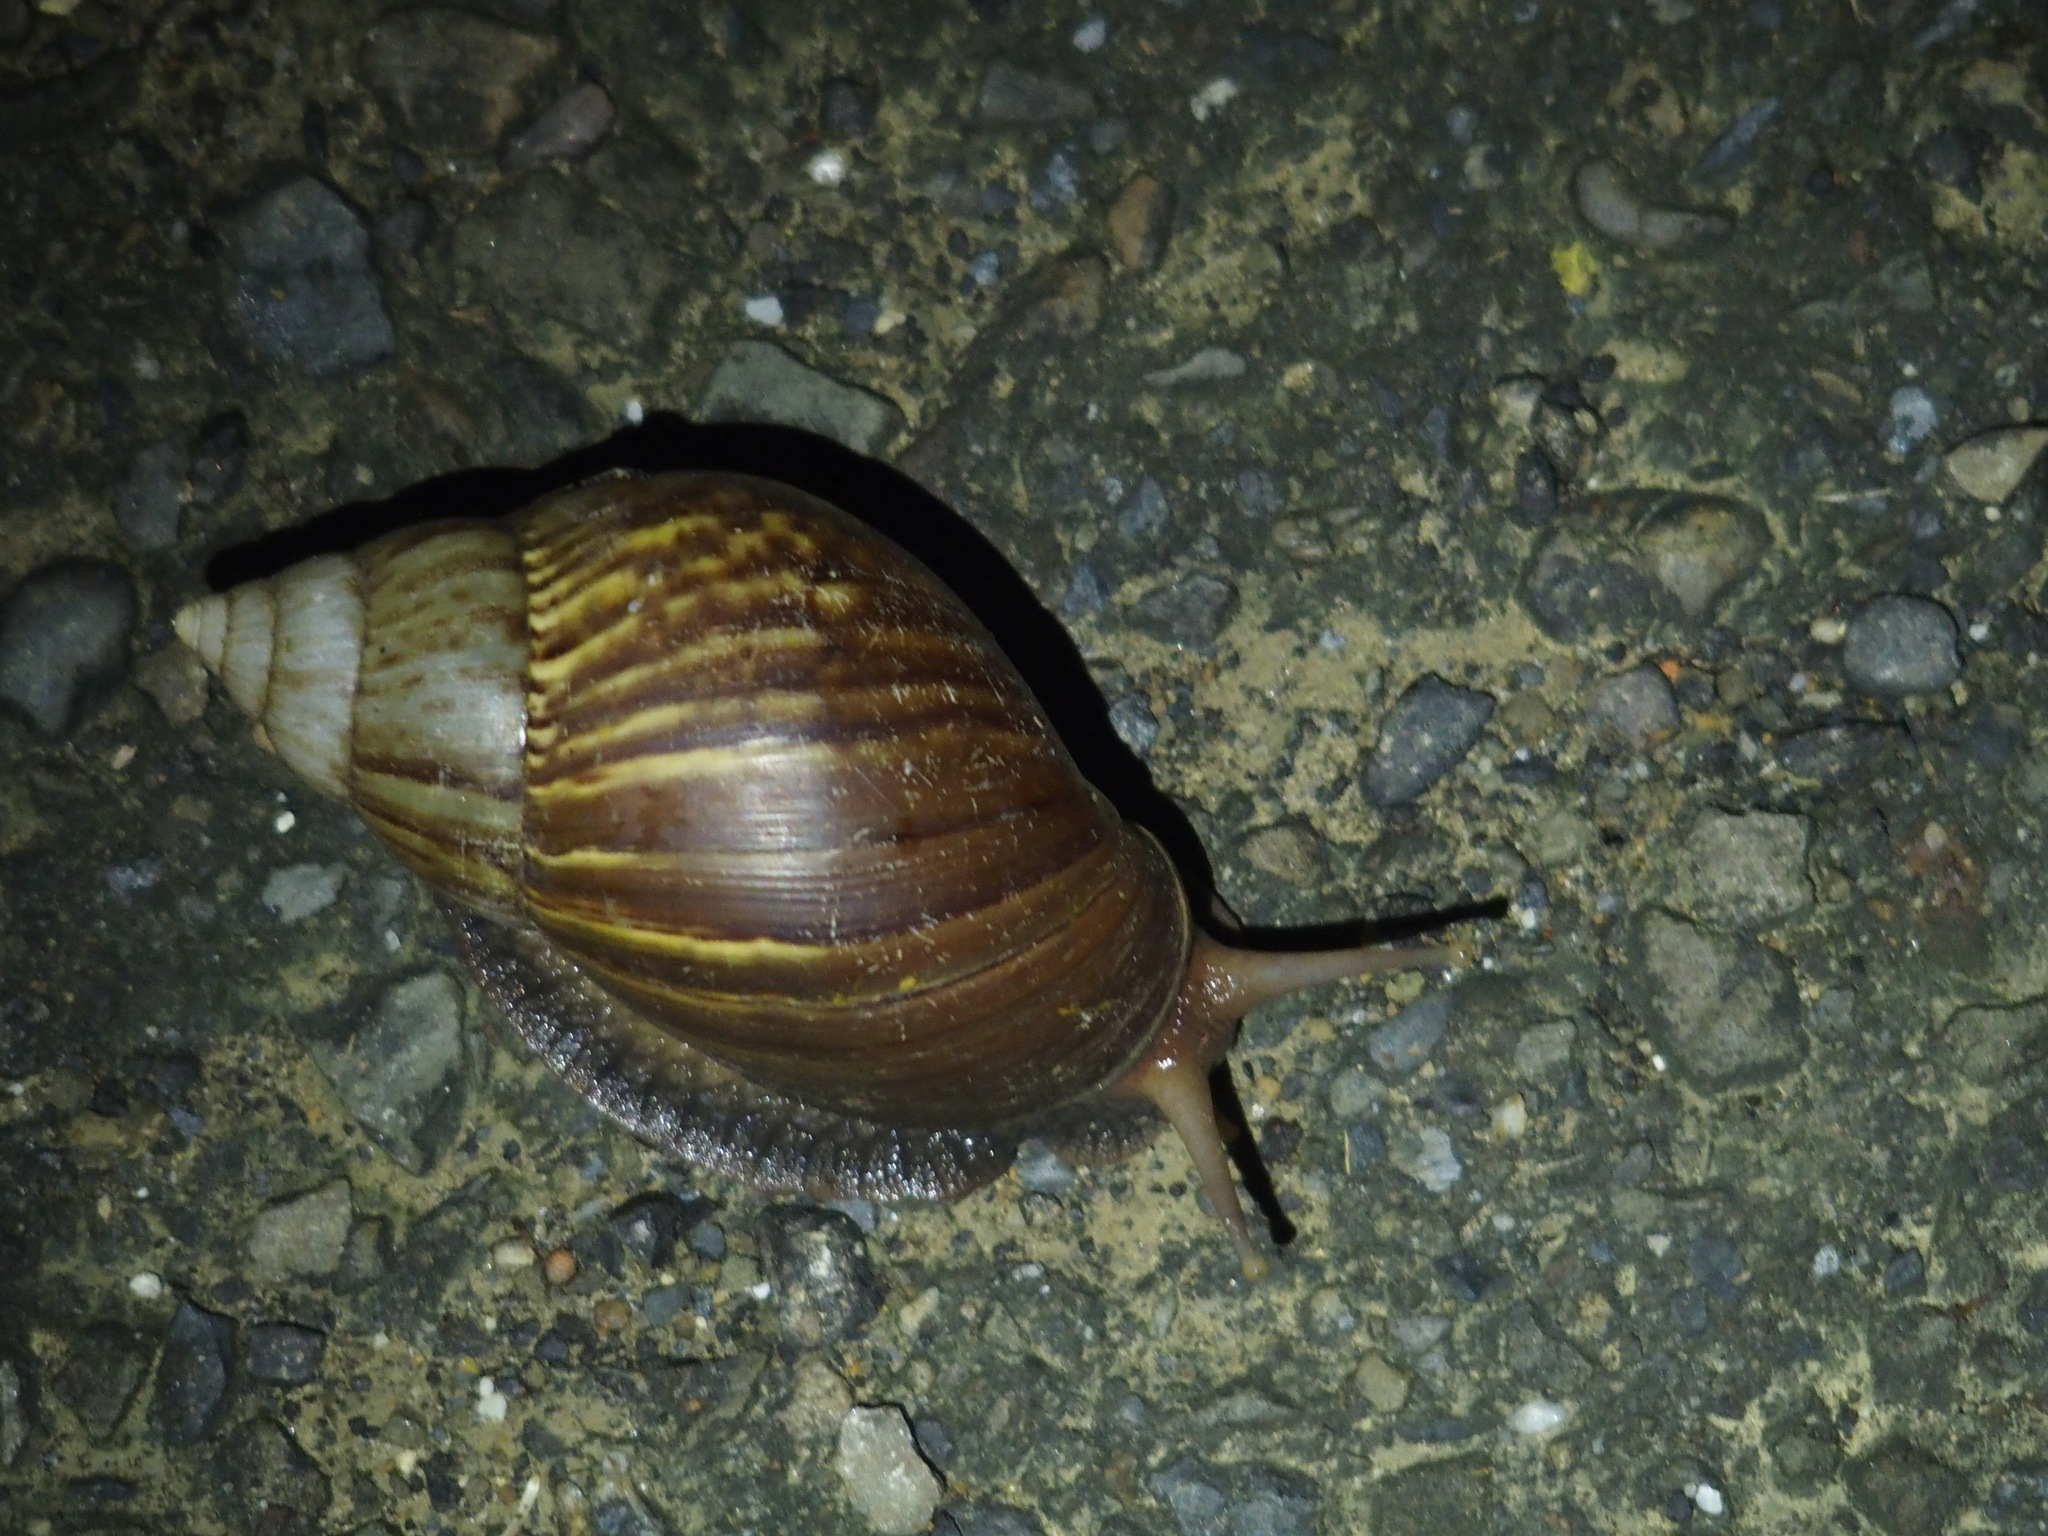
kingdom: Animalia
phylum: Mollusca
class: Gastropoda
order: Stylommatophora
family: Achatinidae
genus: Lissachatina
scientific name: Lissachatina fulica
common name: Giant african snail
